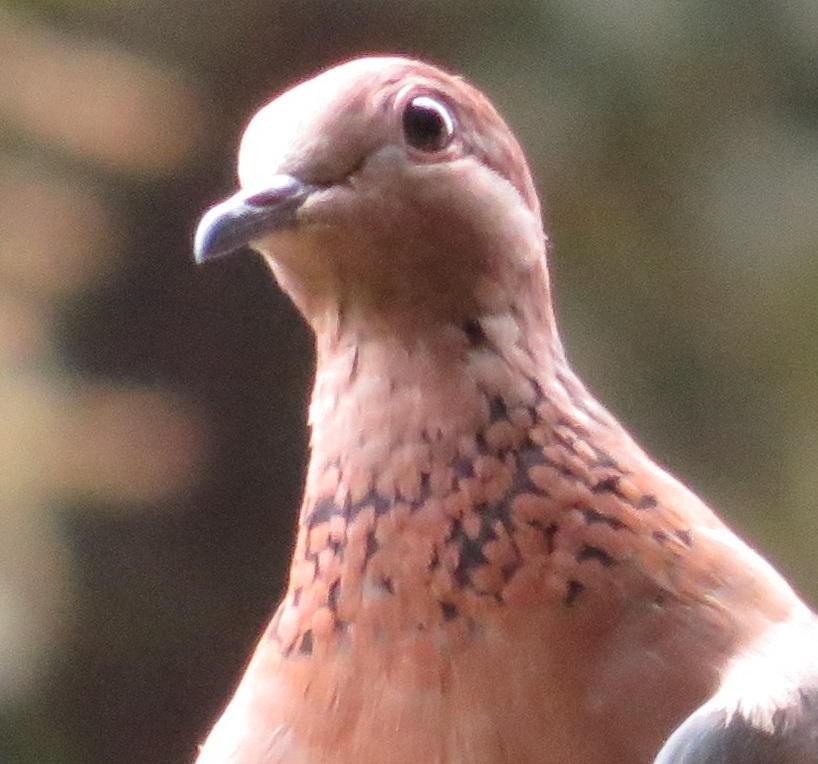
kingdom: Animalia
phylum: Chordata
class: Aves
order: Columbiformes
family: Columbidae
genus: Spilopelia
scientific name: Spilopelia senegalensis
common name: Laughing dove
